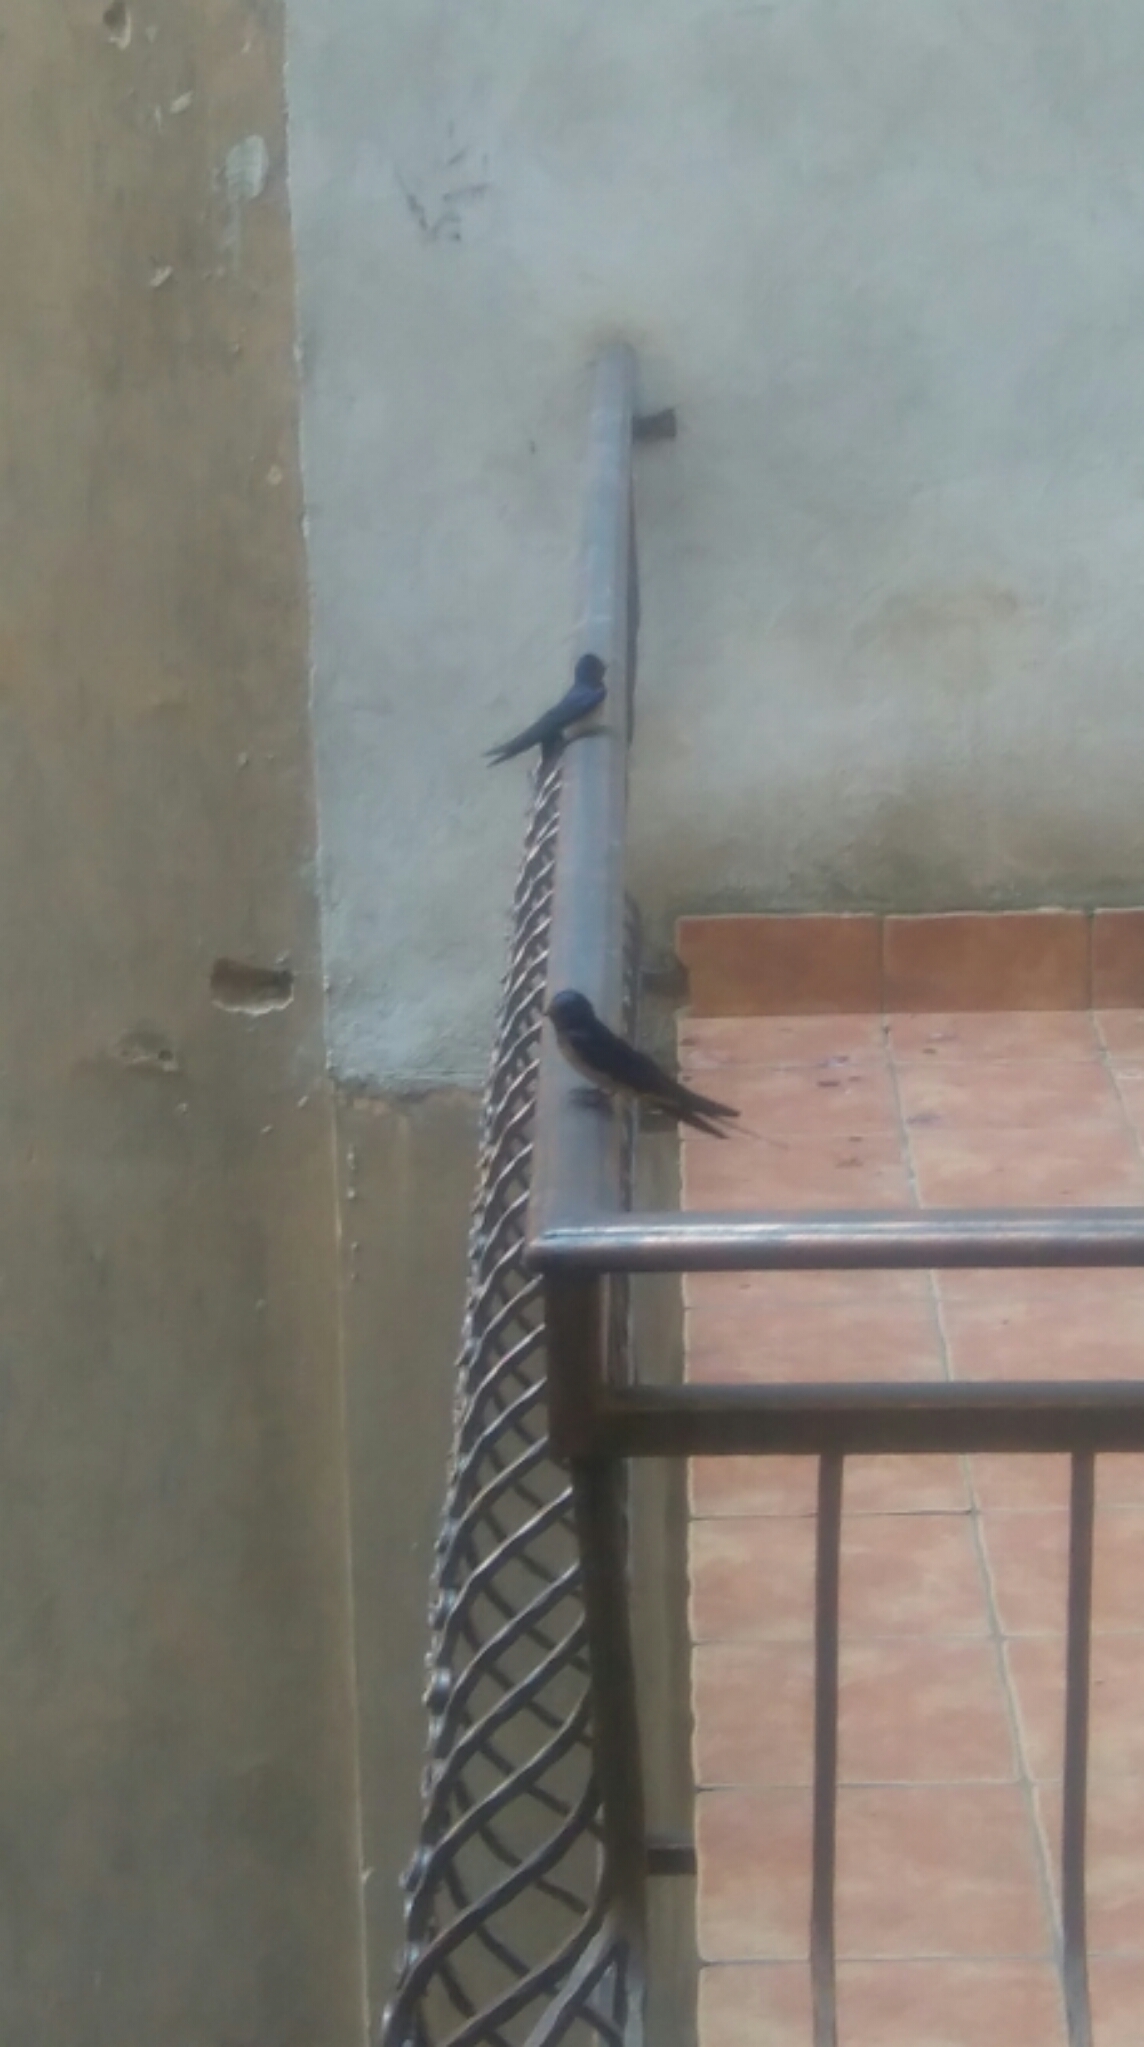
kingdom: Animalia
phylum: Chordata
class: Aves
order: Passeriformes
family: Hirundinidae
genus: Hirundo
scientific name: Hirundo rustica
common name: Barn swallow
